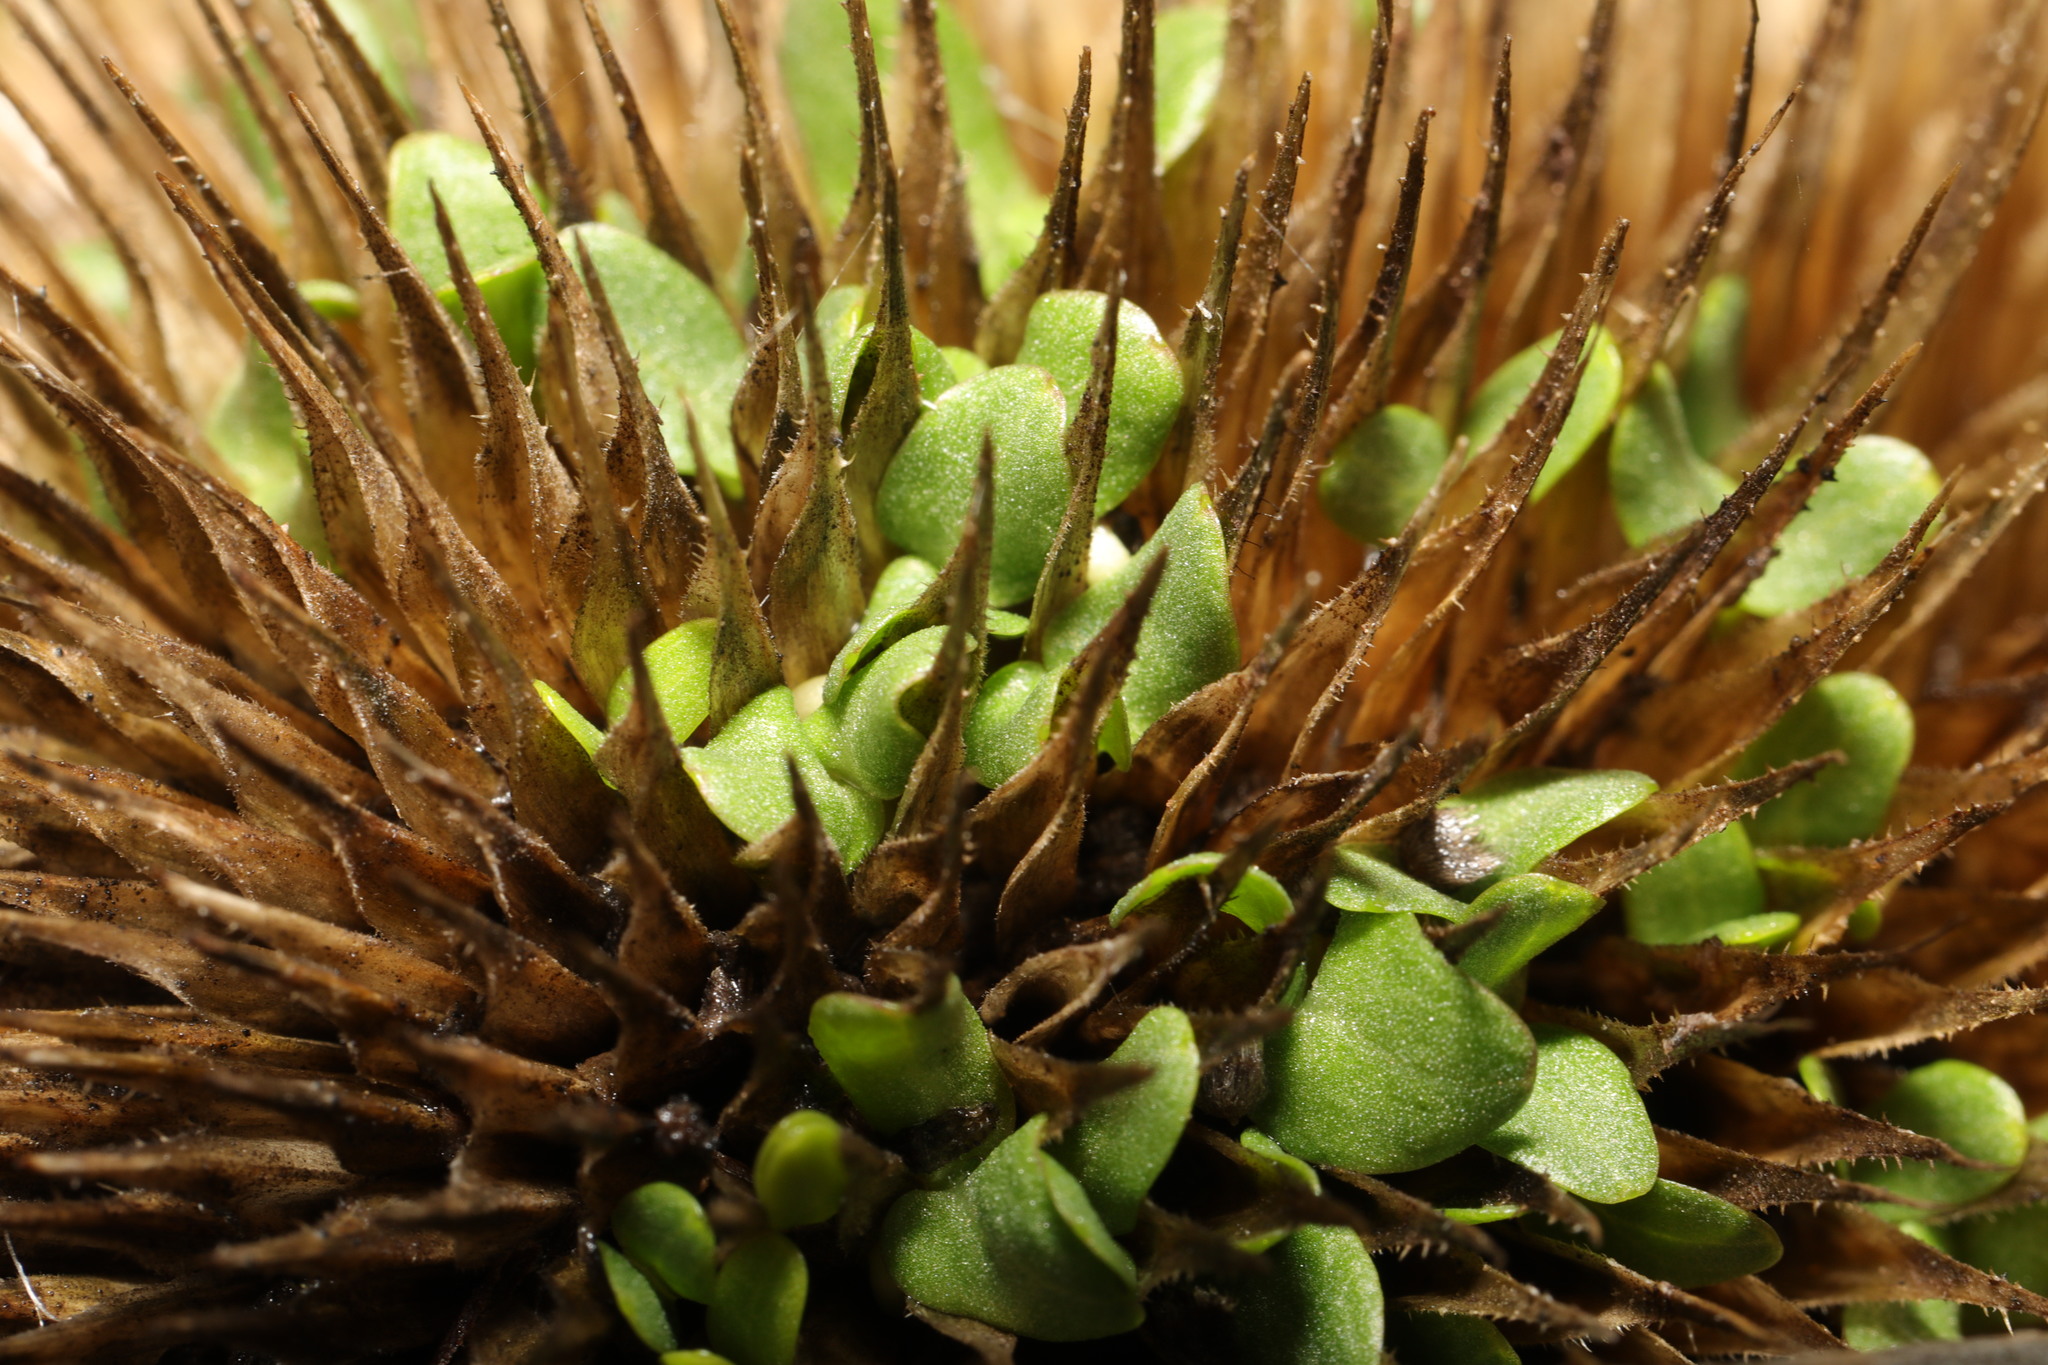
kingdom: Plantae
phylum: Tracheophyta
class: Magnoliopsida
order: Dipsacales
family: Caprifoliaceae
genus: Dipsacus
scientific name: Dipsacus fullonum
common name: Teasel
